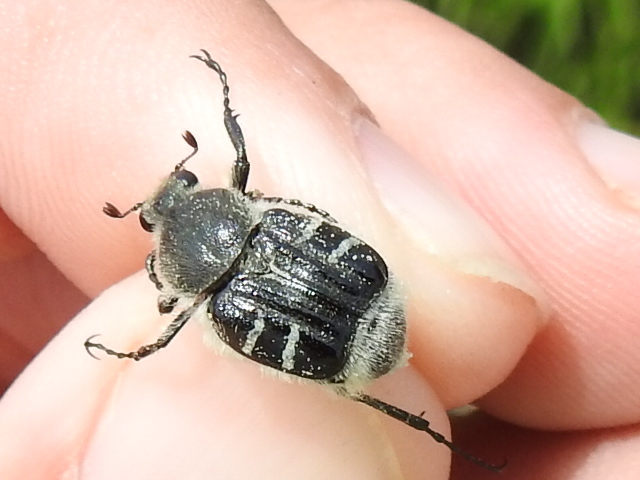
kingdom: Animalia
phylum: Arthropoda
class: Insecta
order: Coleoptera
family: Scarabaeidae
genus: Trichiotinus
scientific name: Trichiotinus texanus
